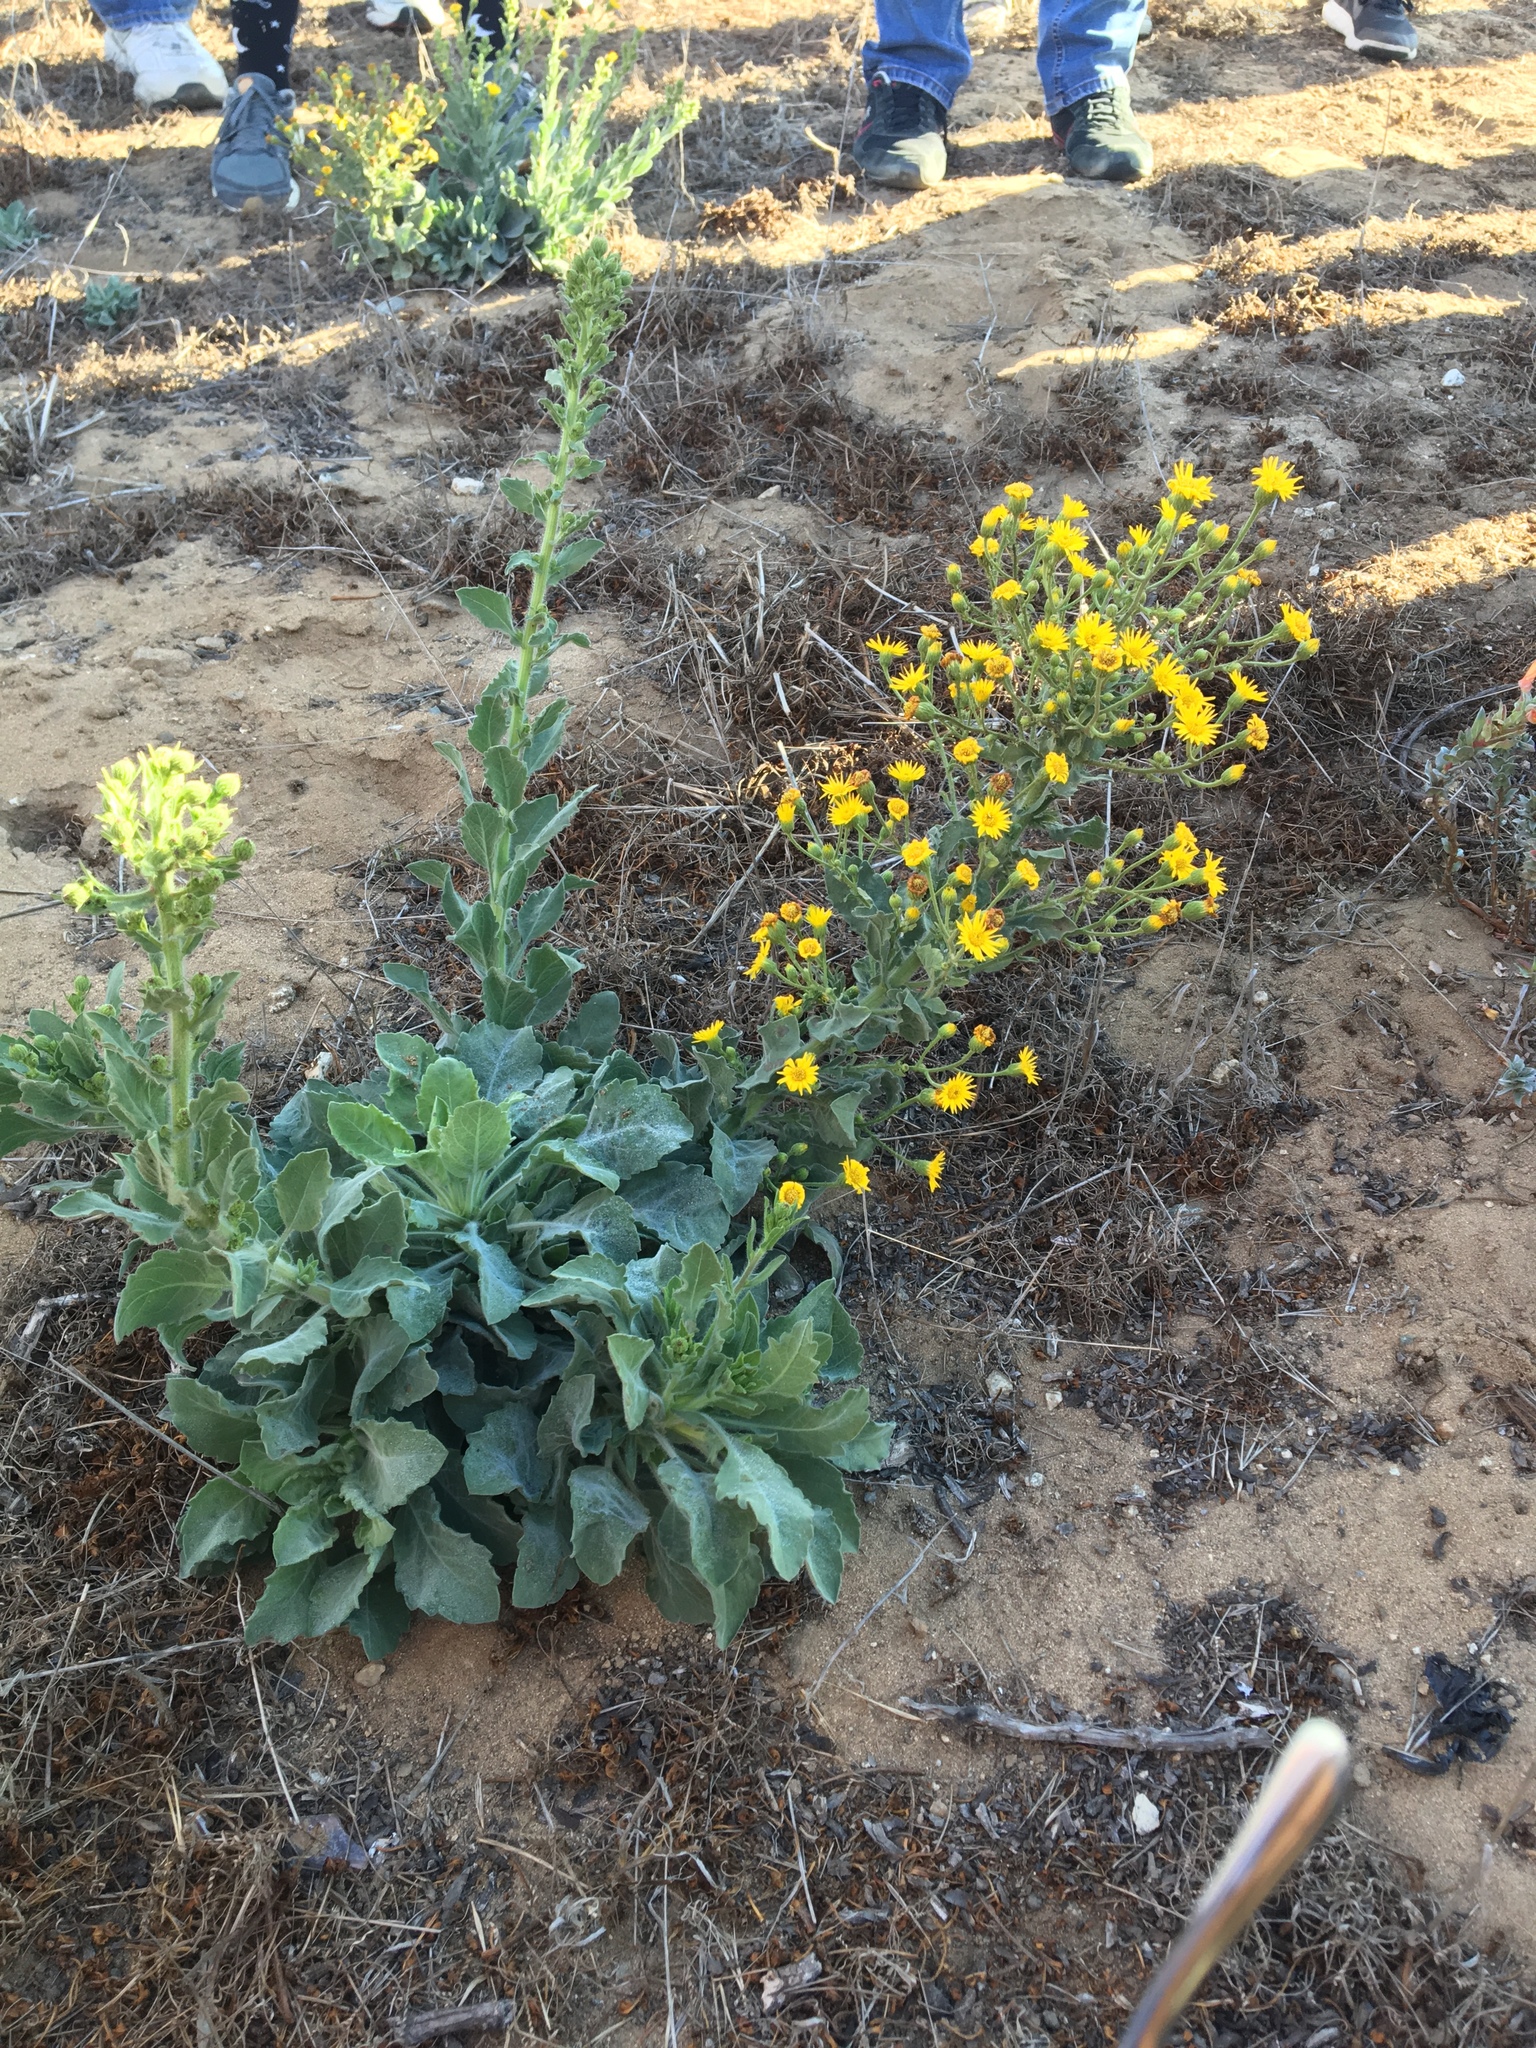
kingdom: Plantae
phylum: Tracheophyta
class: Magnoliopsida
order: Asterales
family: Asteraceae
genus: Heterotheca
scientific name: Heterotheca grandiflora
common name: Telegraphweed
